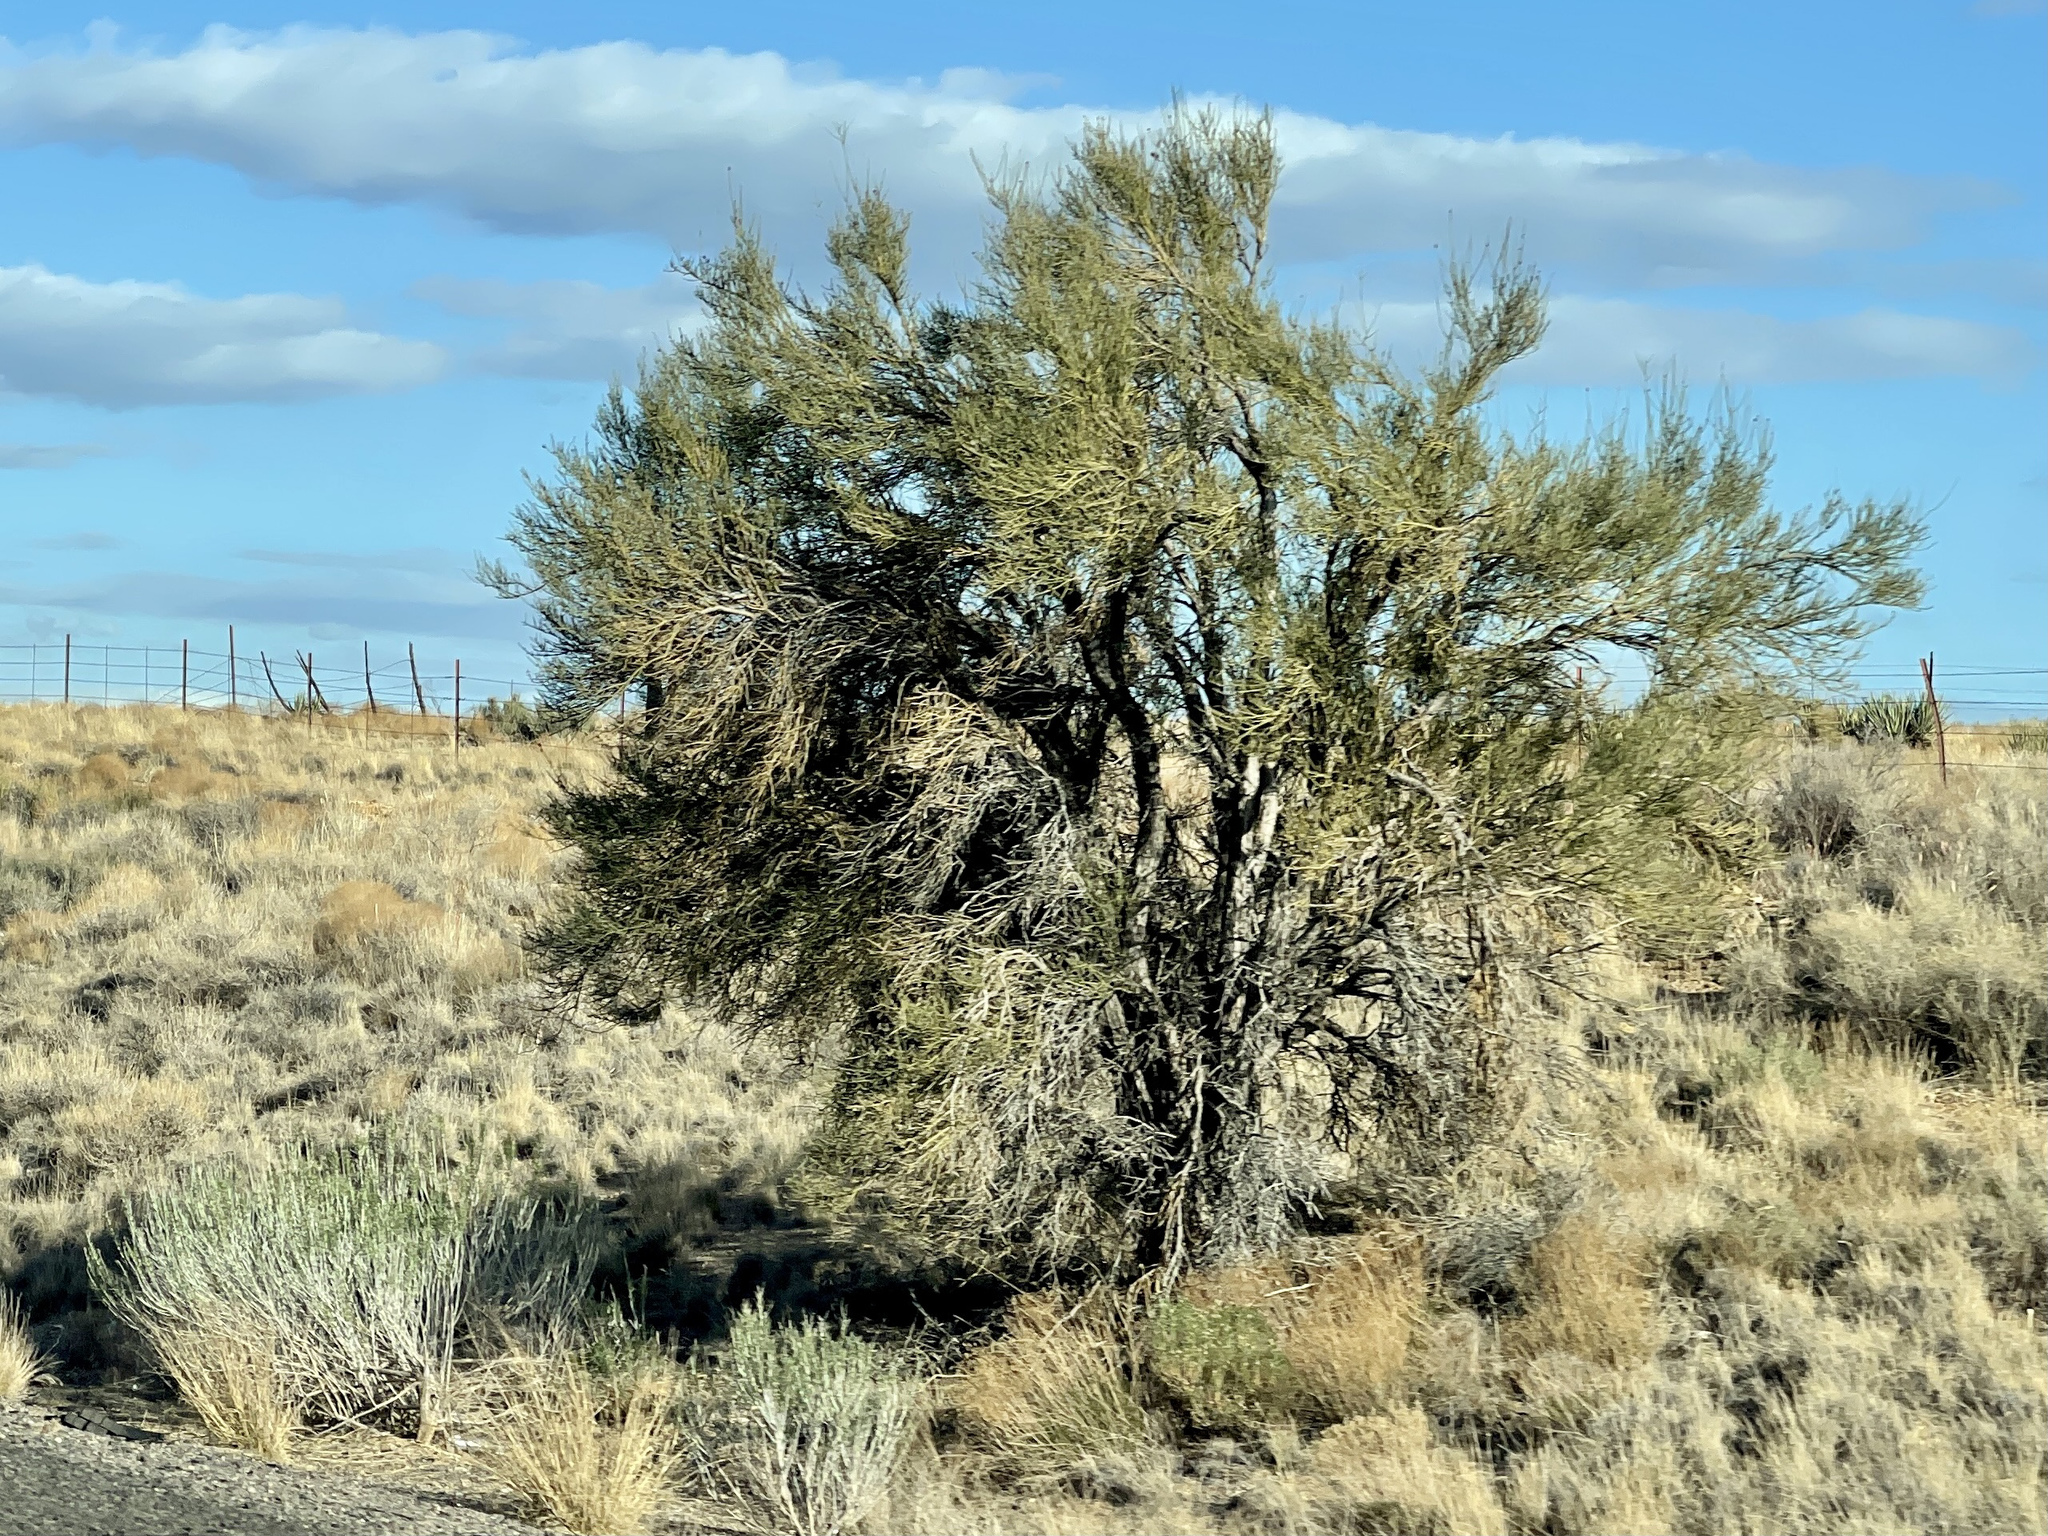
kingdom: Plantae
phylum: Tracheophyta
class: Magnoliopsida
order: Celastrales
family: Celastraceae
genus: Canotia
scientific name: Canotia holacantha
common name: Crucifixion thorns
